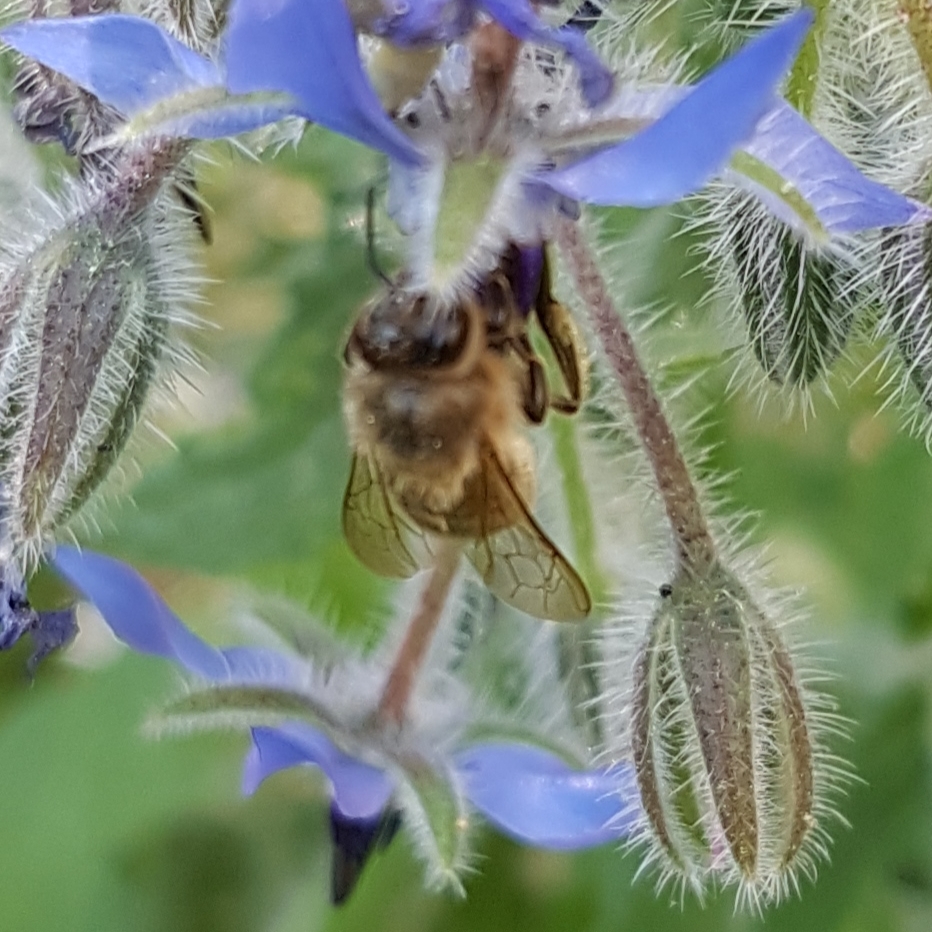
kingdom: Animalia
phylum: Arthropoda
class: Insecta
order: Hymenoptera
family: Apidae
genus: Apis
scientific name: Apis mellifera
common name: Honey bee
